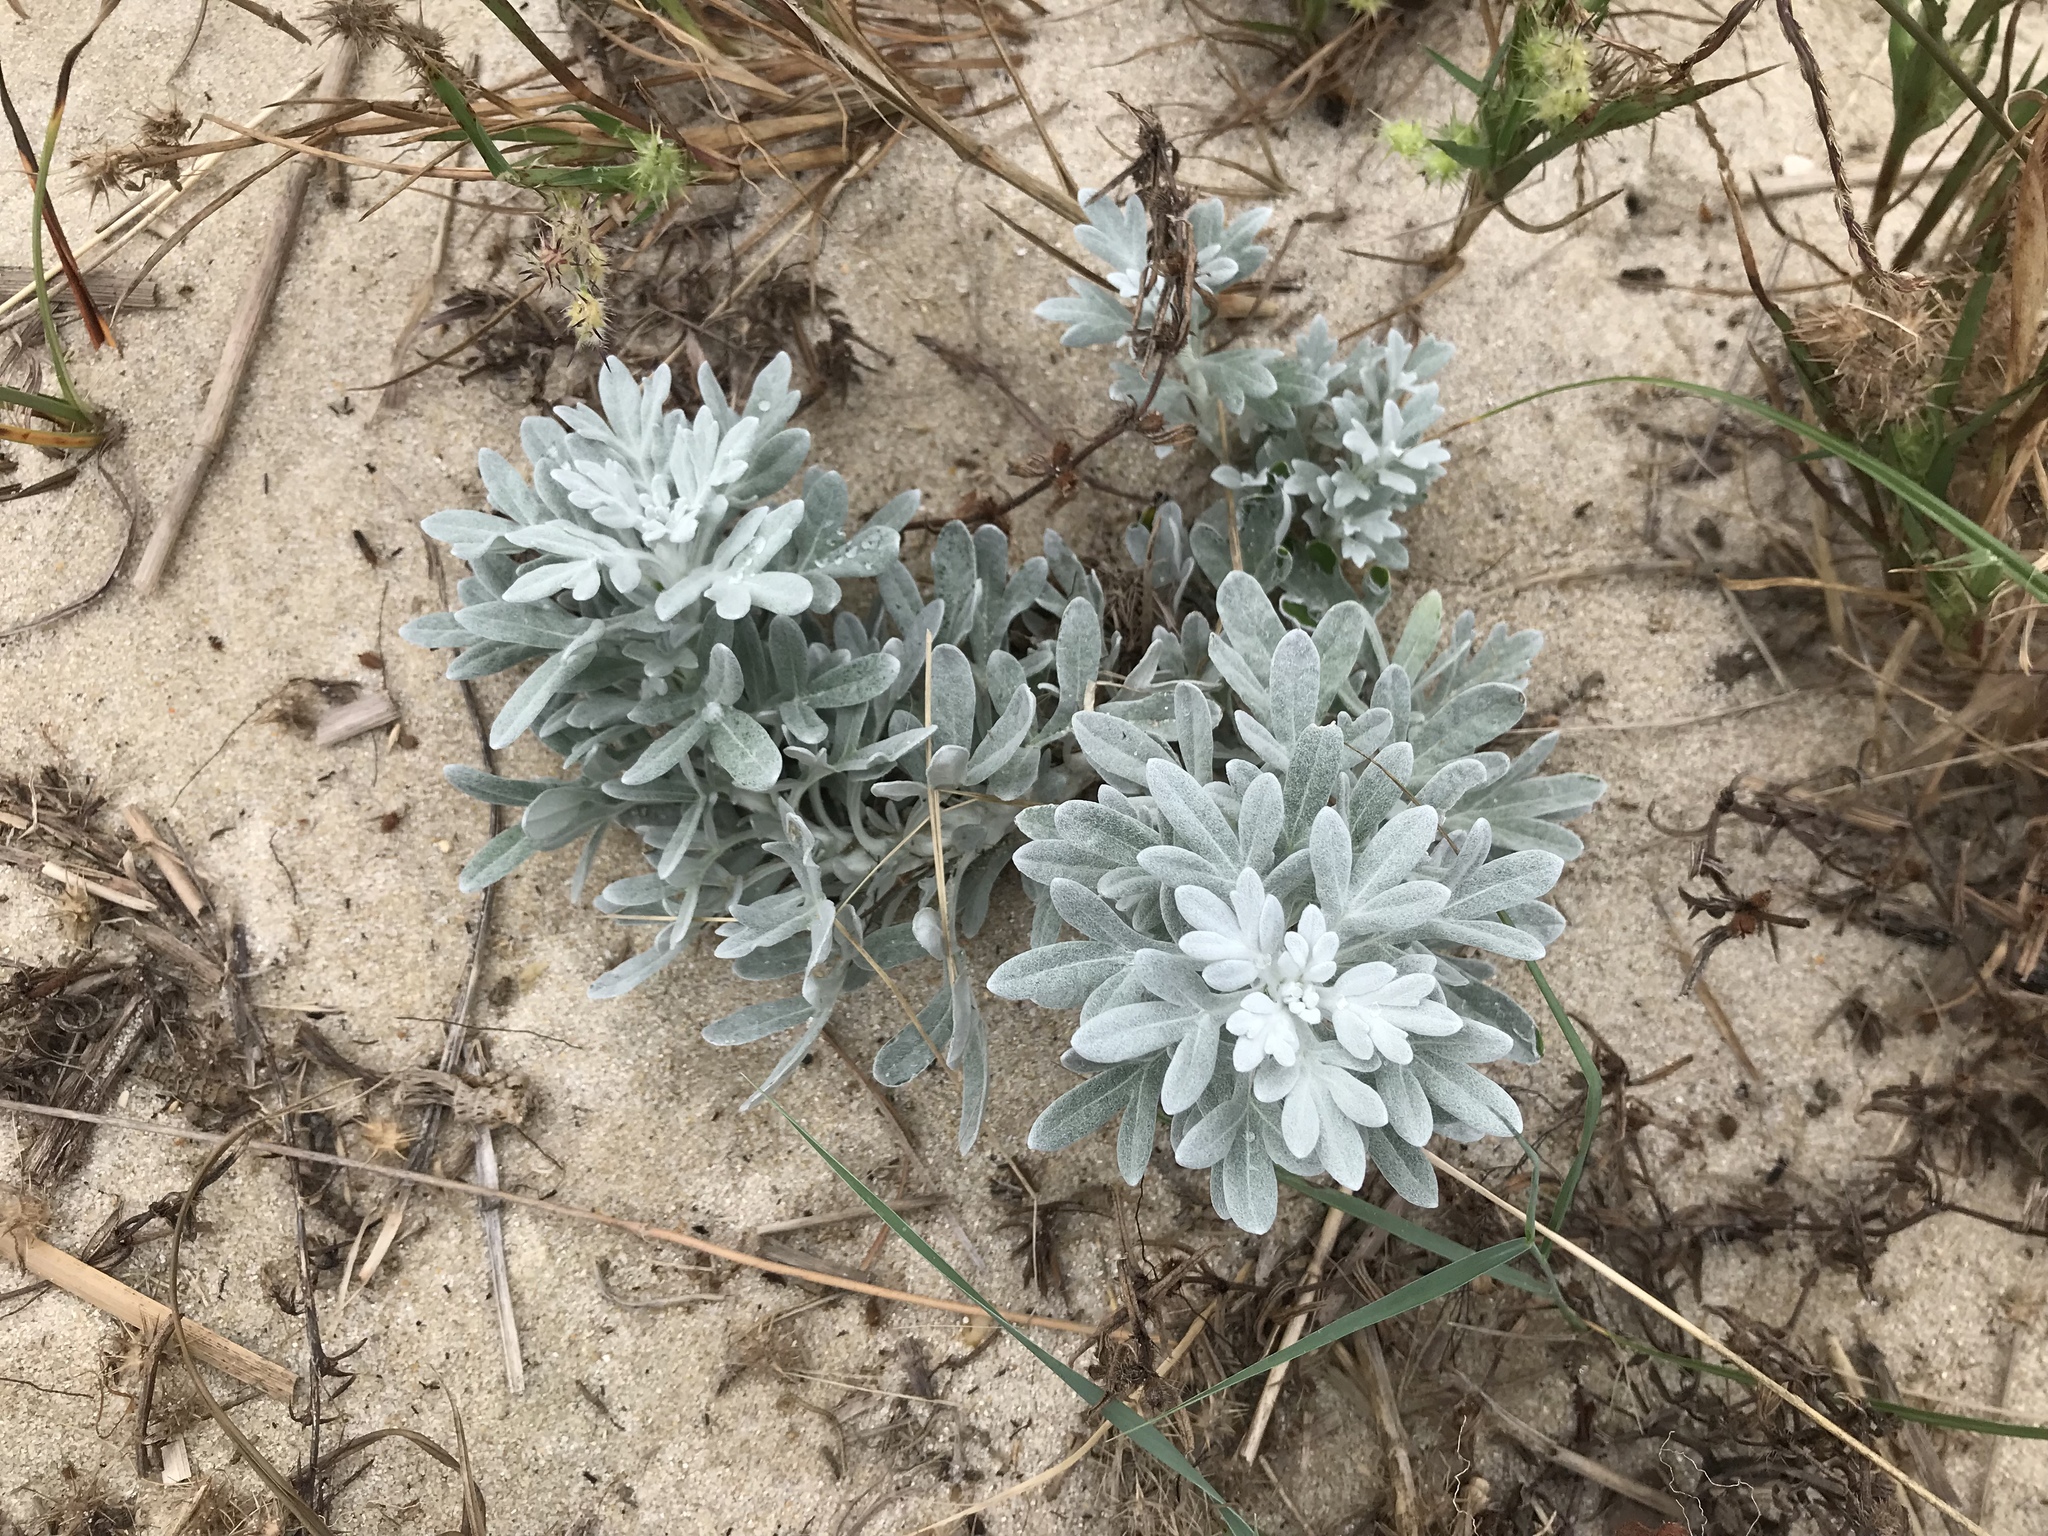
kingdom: Plantae
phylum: Tracheophyta
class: Magnoliopsida
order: Asterales
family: Asteraceae
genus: Artemisia
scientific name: Artemisia stelleriana
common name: Beach wormwood
